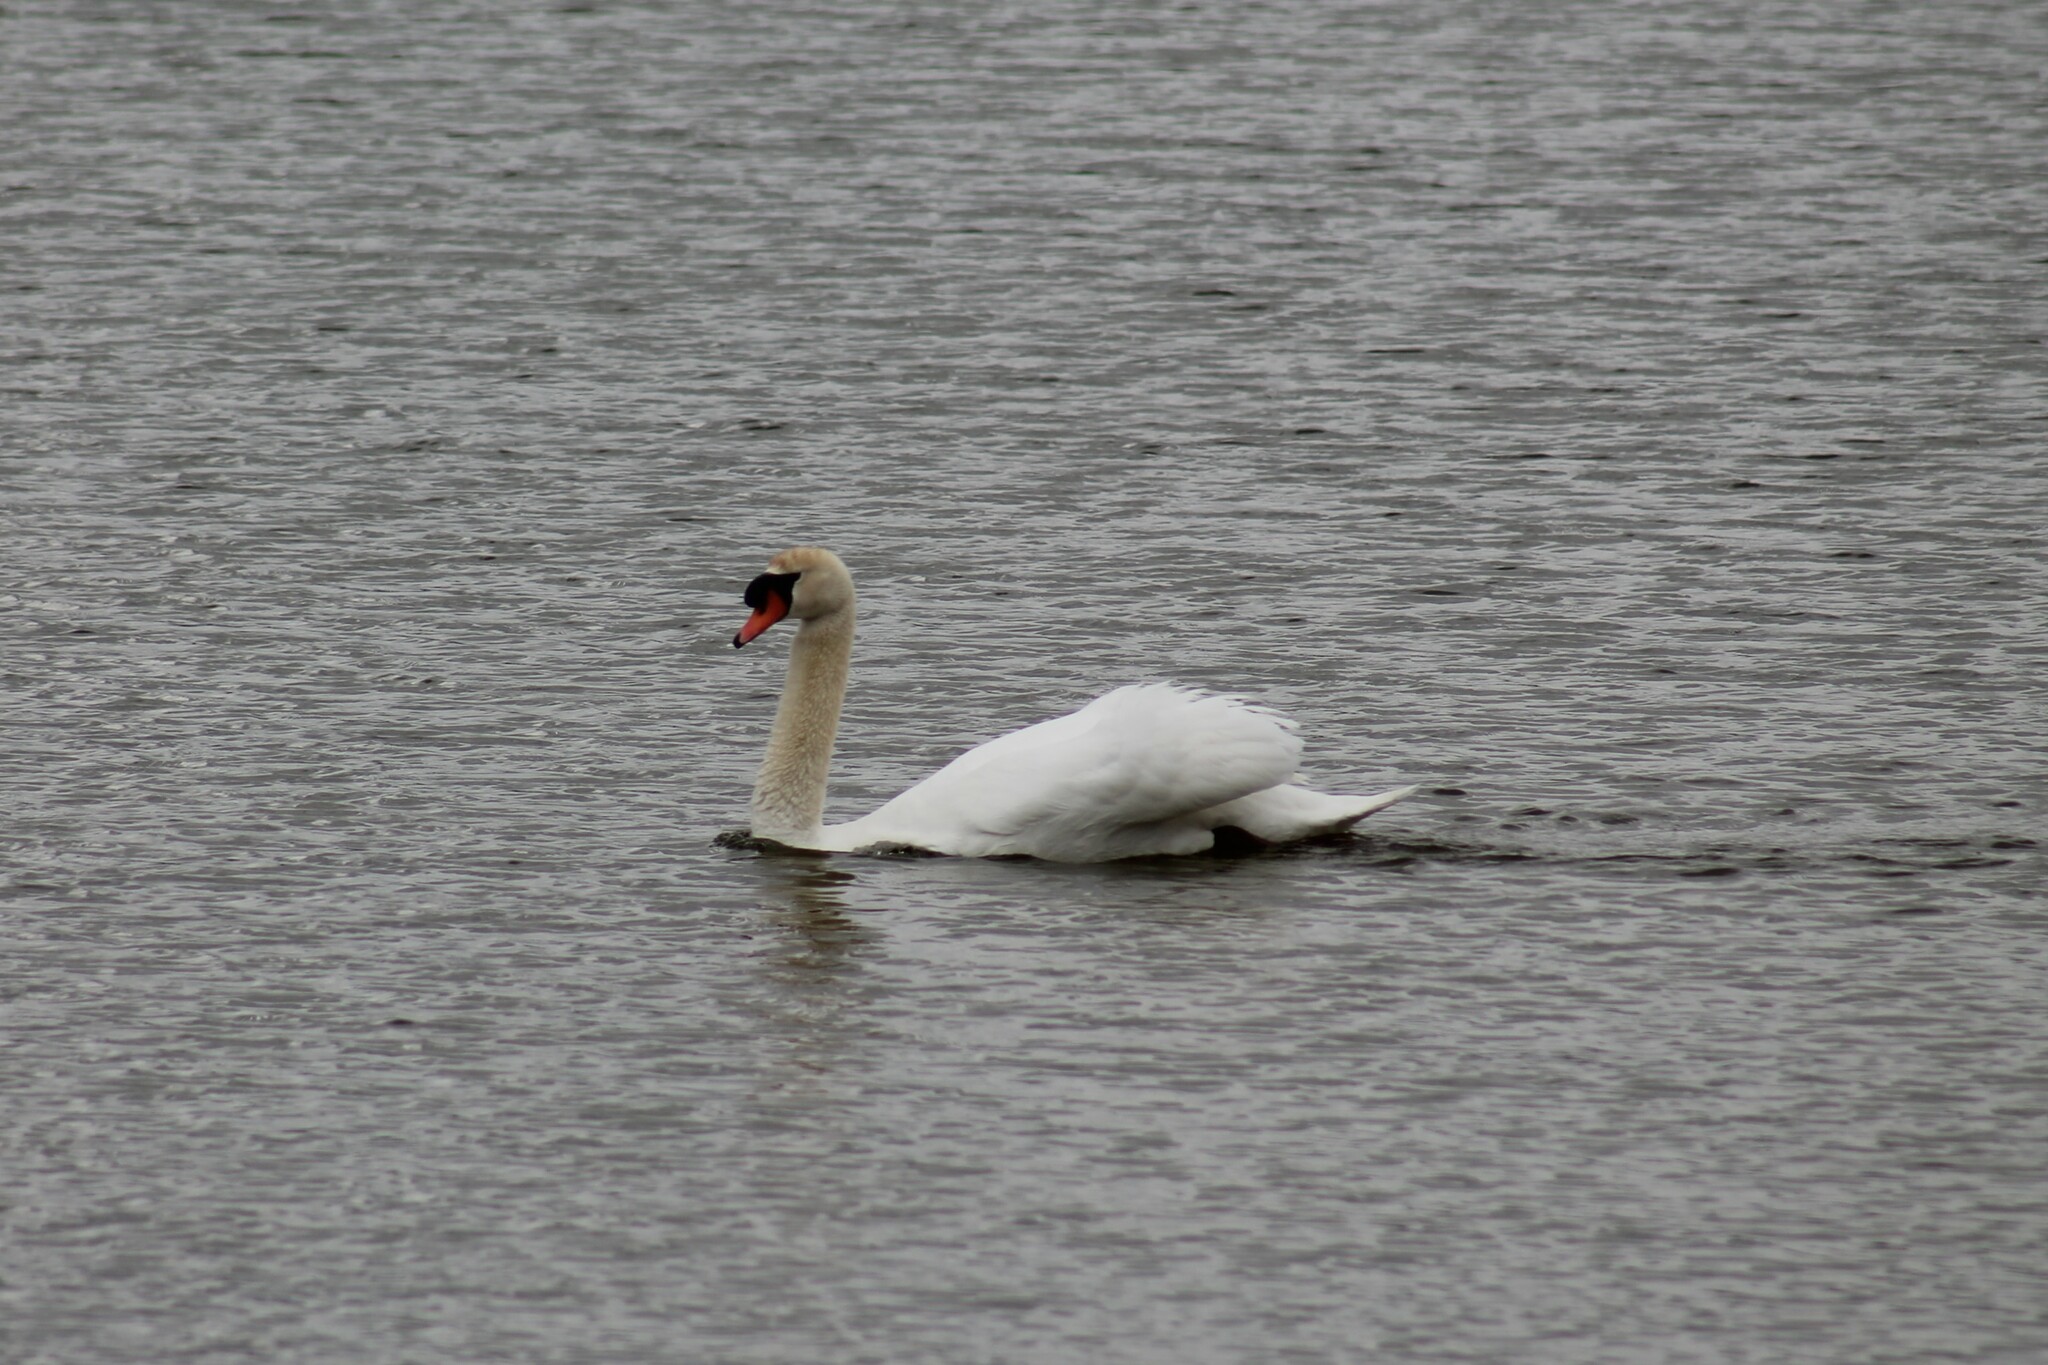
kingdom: Animalia
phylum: Chordata
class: Aves
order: Anseriformes
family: Anatidae
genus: Cygnus
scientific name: Cygnus olor
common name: Mute swan
